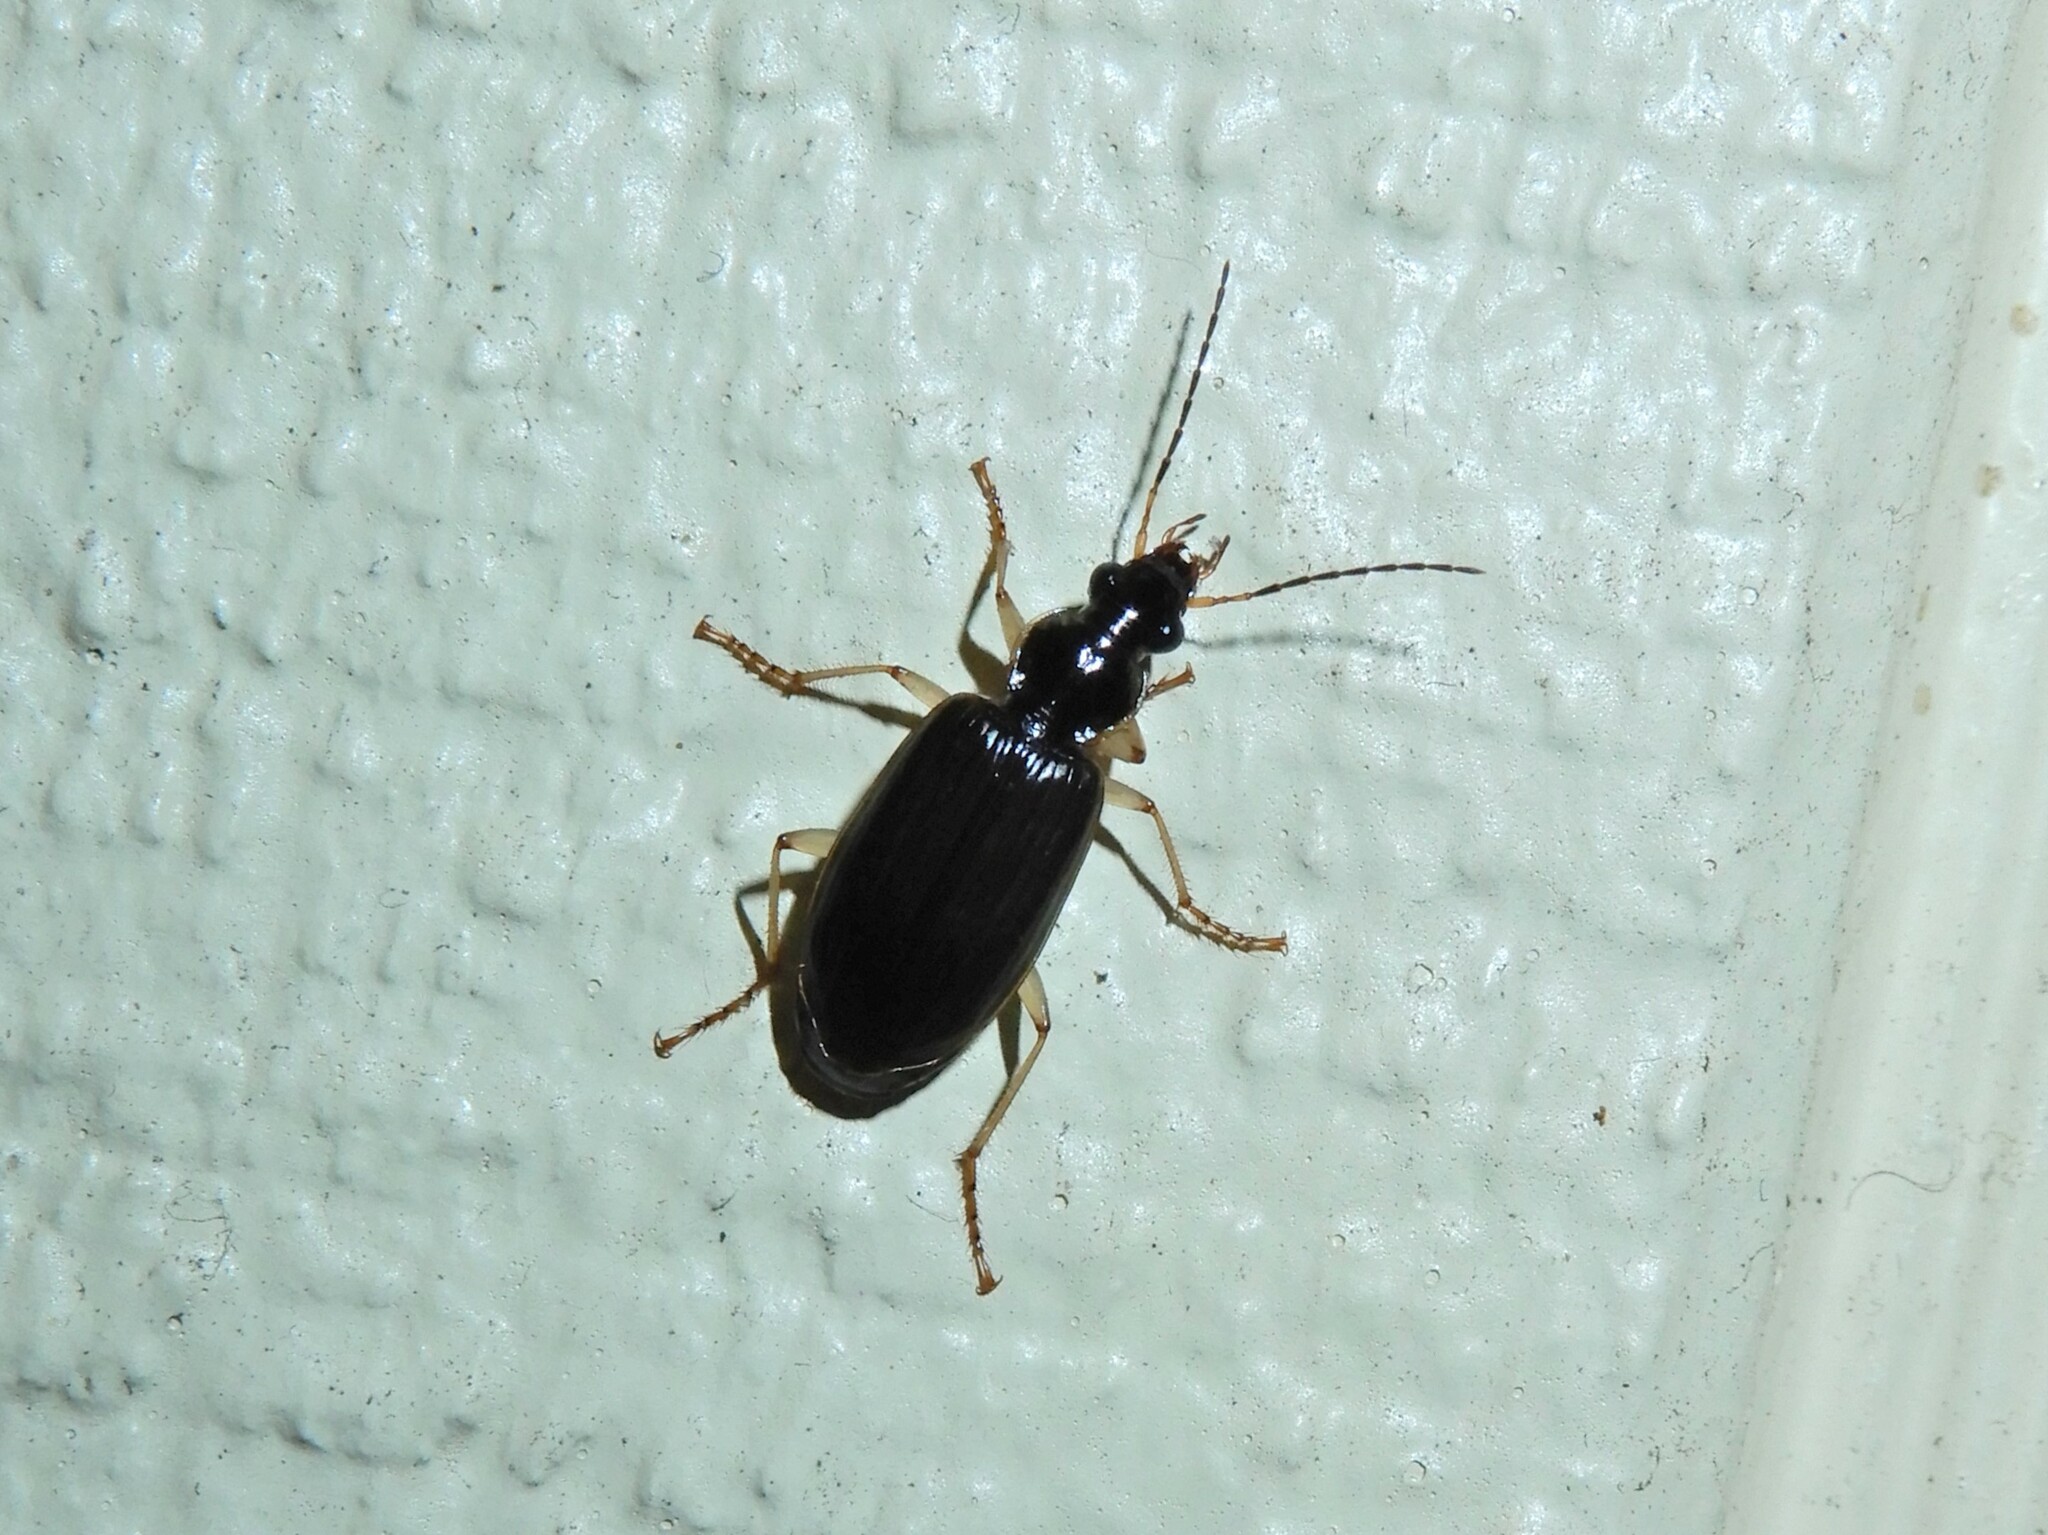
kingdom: Animalia
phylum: Arthropoda
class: Insecta
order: Coleoptera
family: Carabidae
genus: Notagonum
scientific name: Notagonum submetallicum
